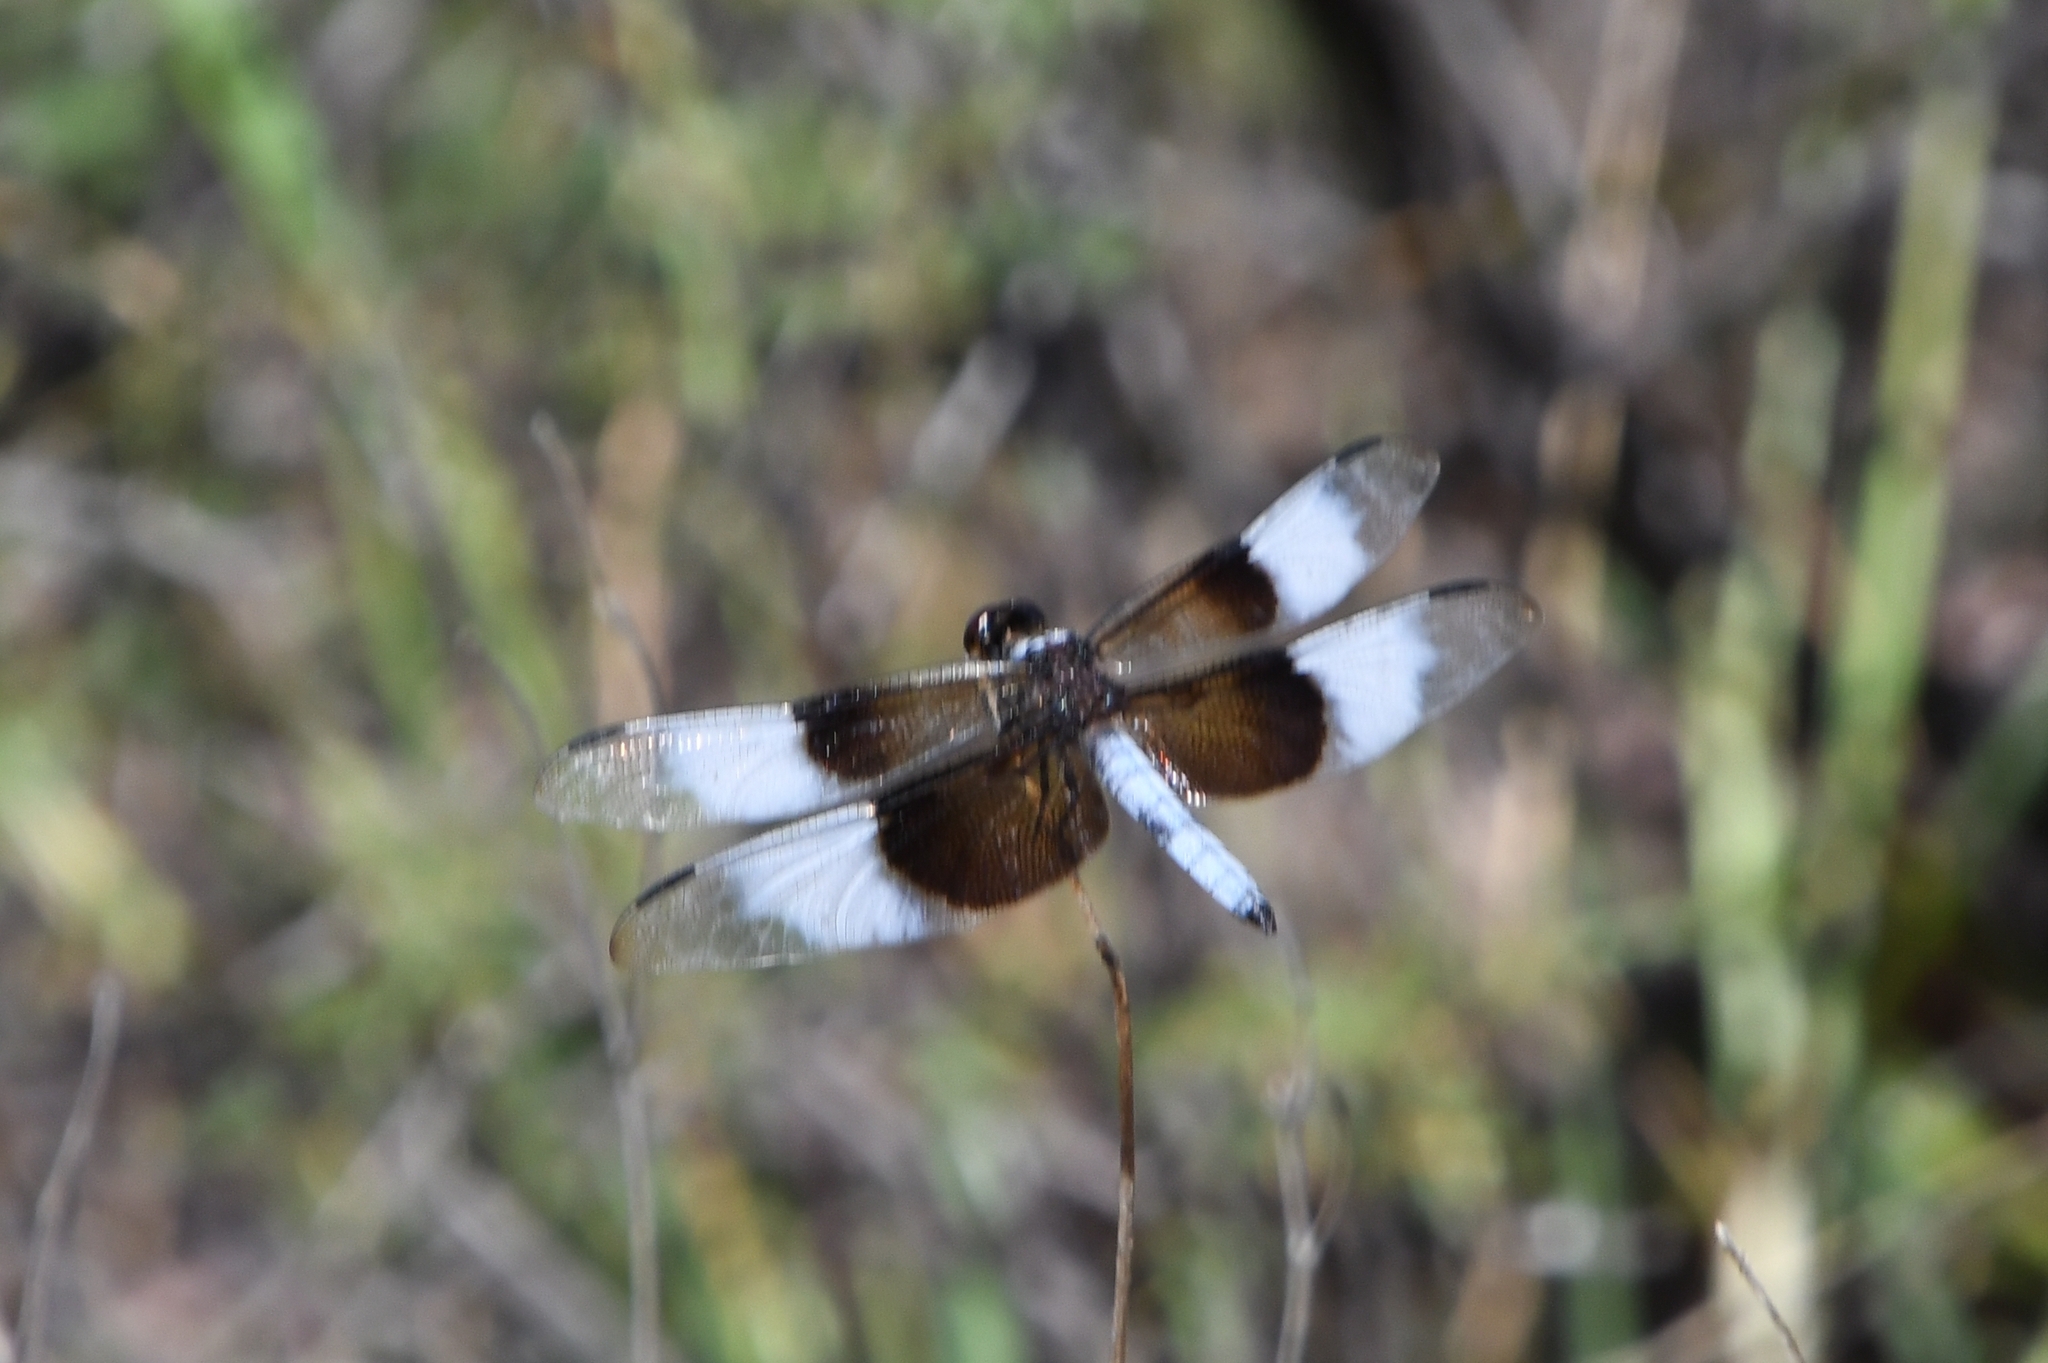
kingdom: Animalia
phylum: Arthropoda
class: Insecta
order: Odonata
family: Libellulidae
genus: Libellula
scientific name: Libellula luctuosa
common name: Widow skimmer
